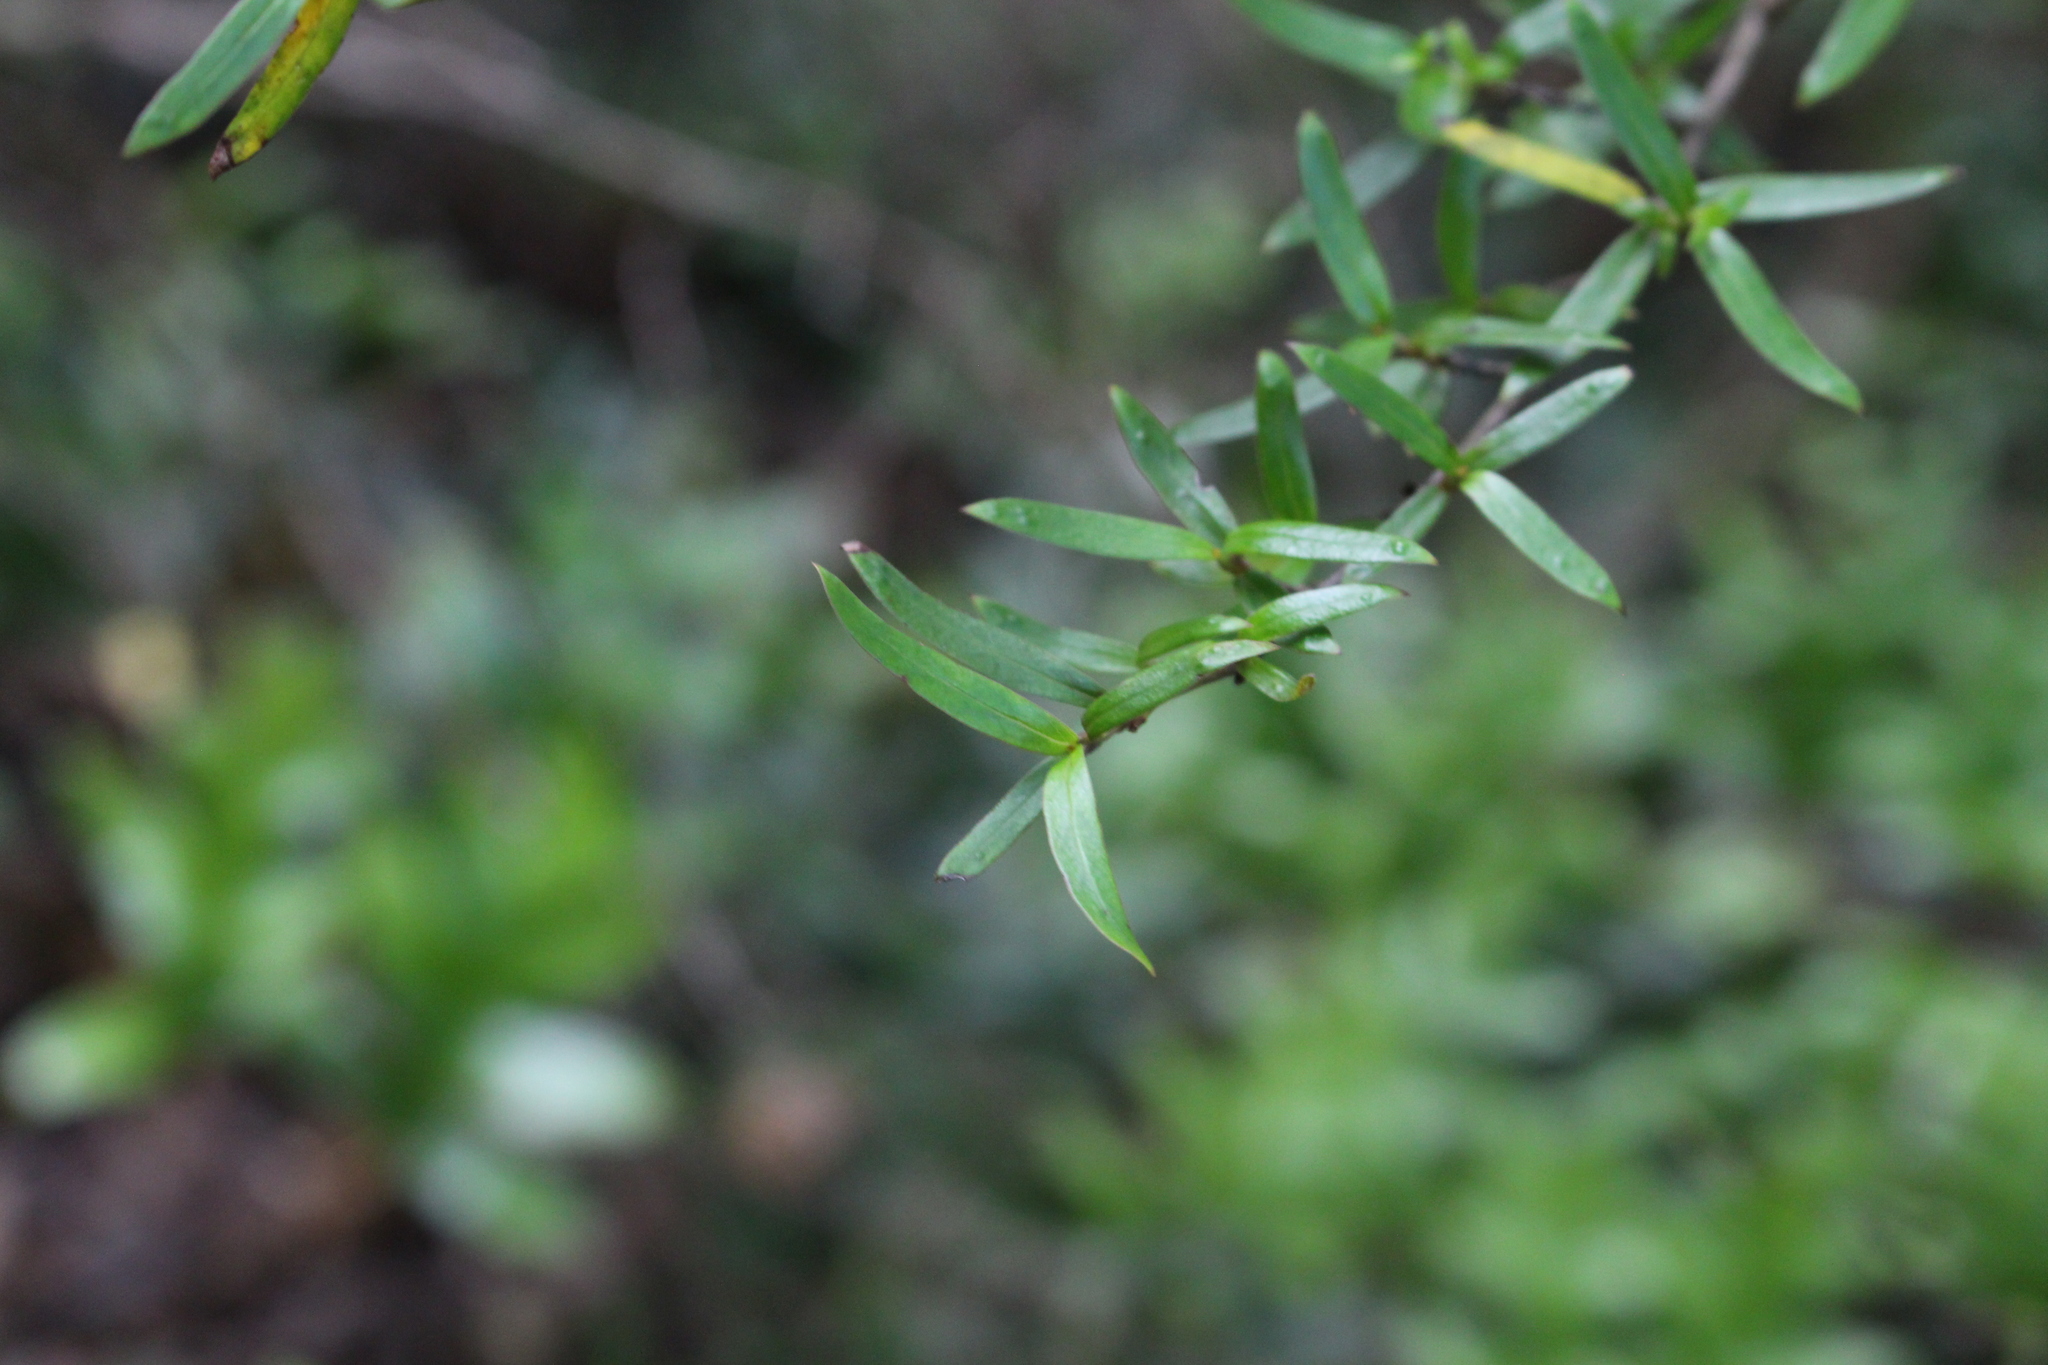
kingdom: Plantae
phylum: Tracheophyta
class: Magnoliopsida
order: Gentianales
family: Rubiaceae
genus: Coprosma
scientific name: Coprosma linariifolia
